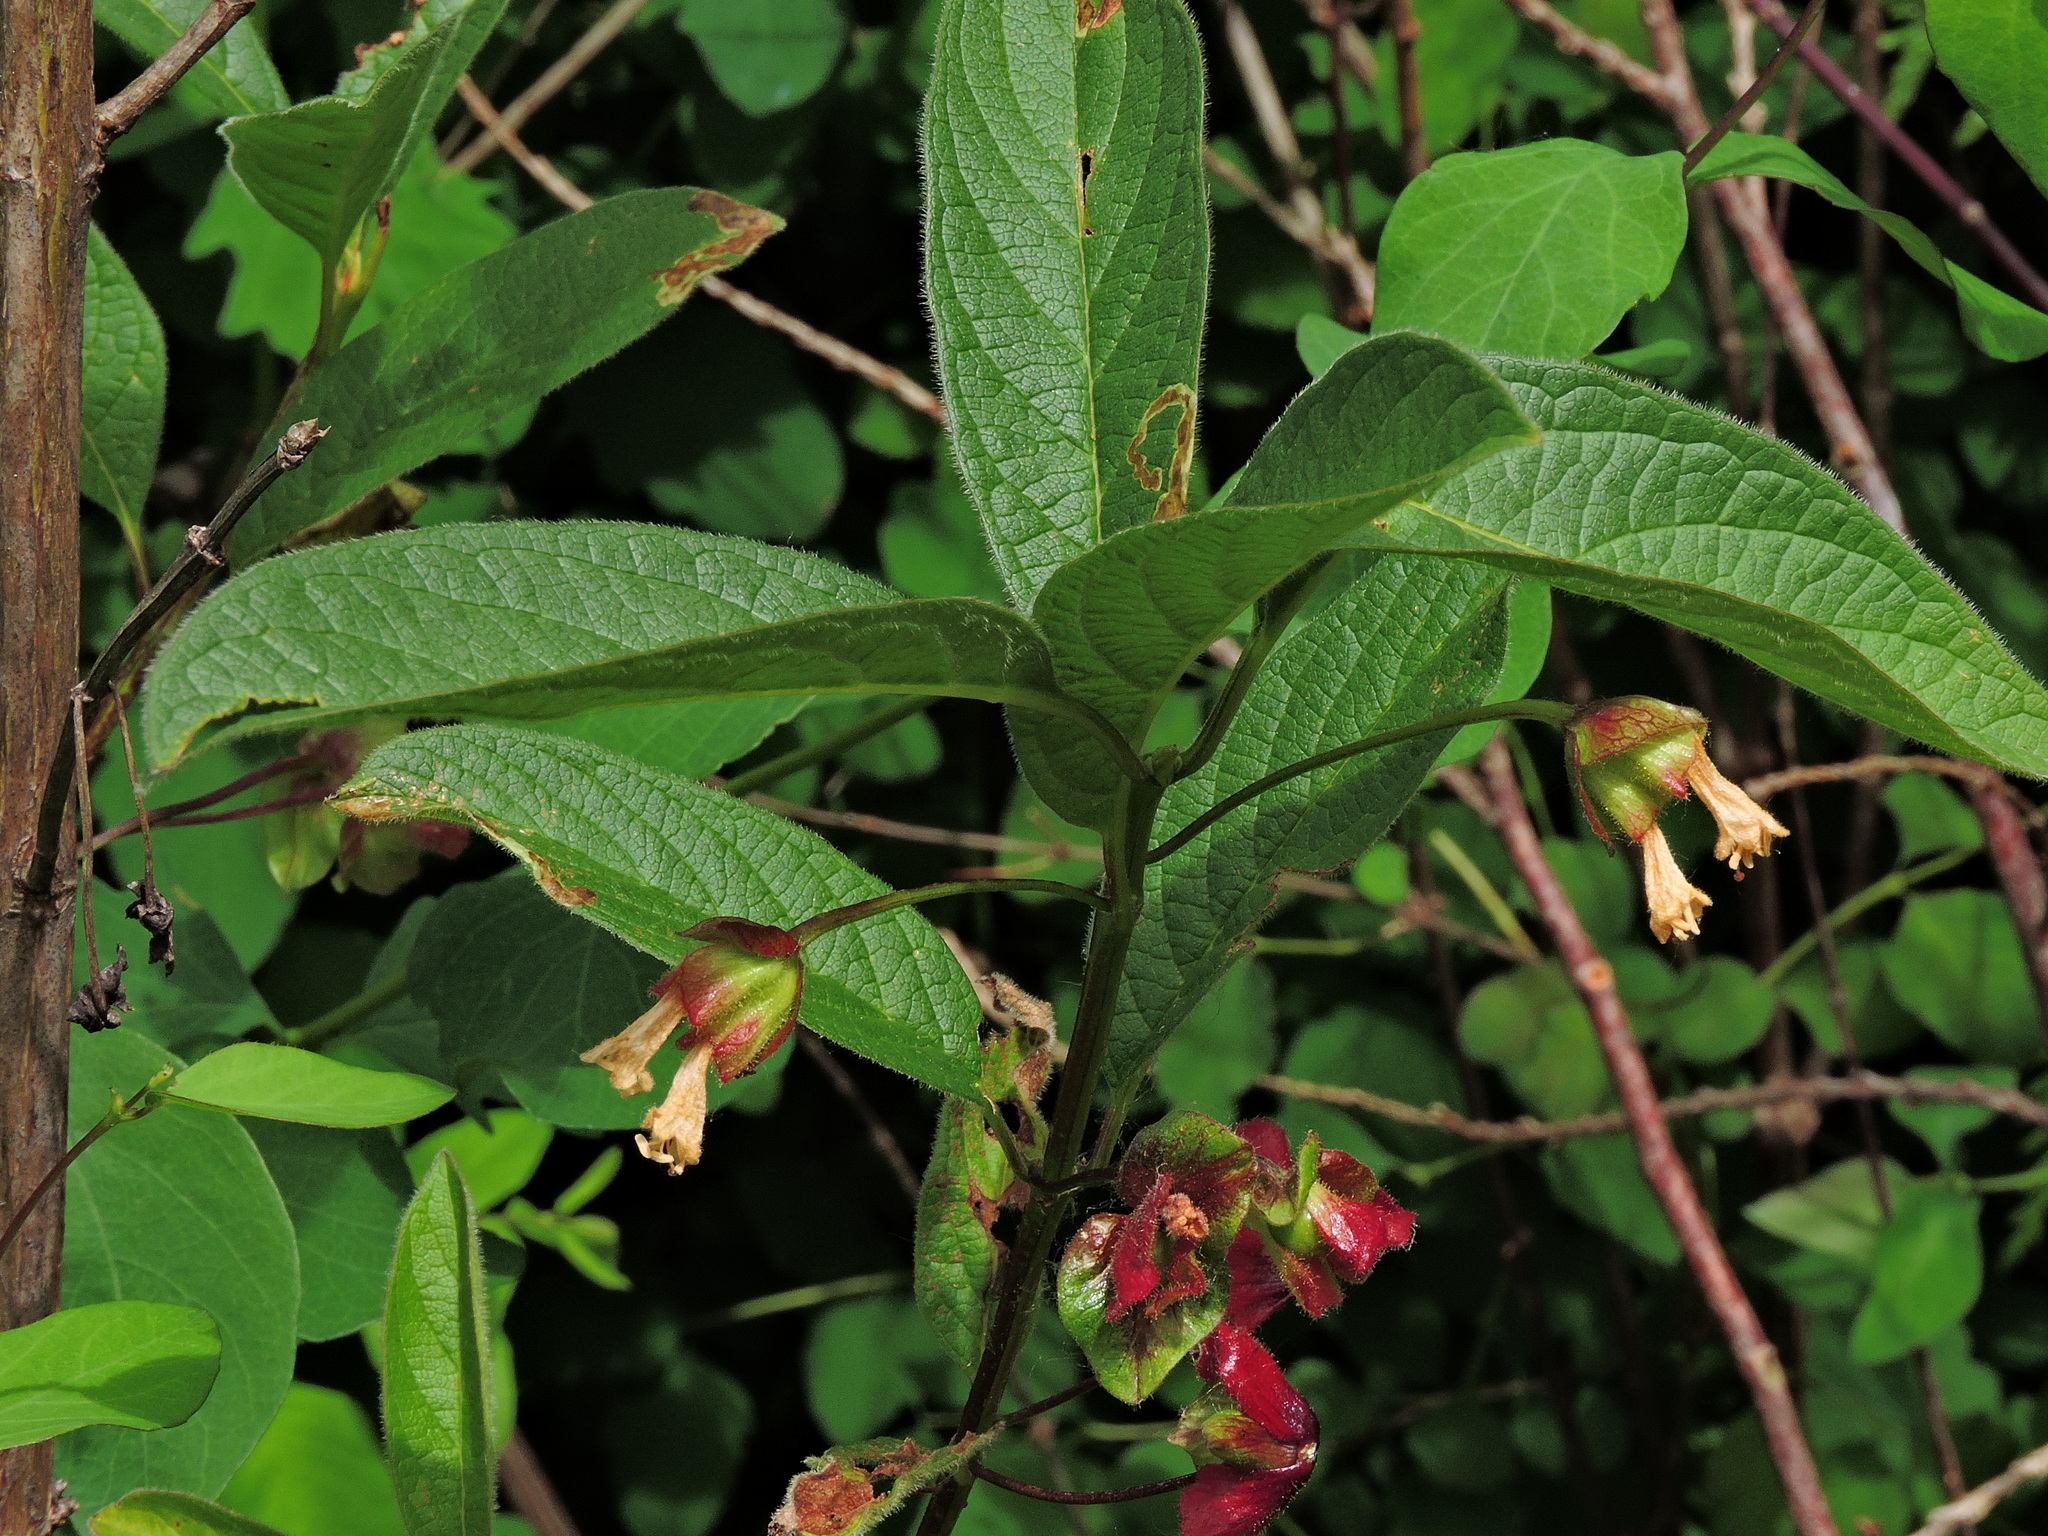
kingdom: Plantae
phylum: Tracheophyta
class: Magnoliopsida
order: Dipsacales
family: Caprifoliaceae
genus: Lonicera
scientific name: Lonicera involucrata
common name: Californian honeysuckle
